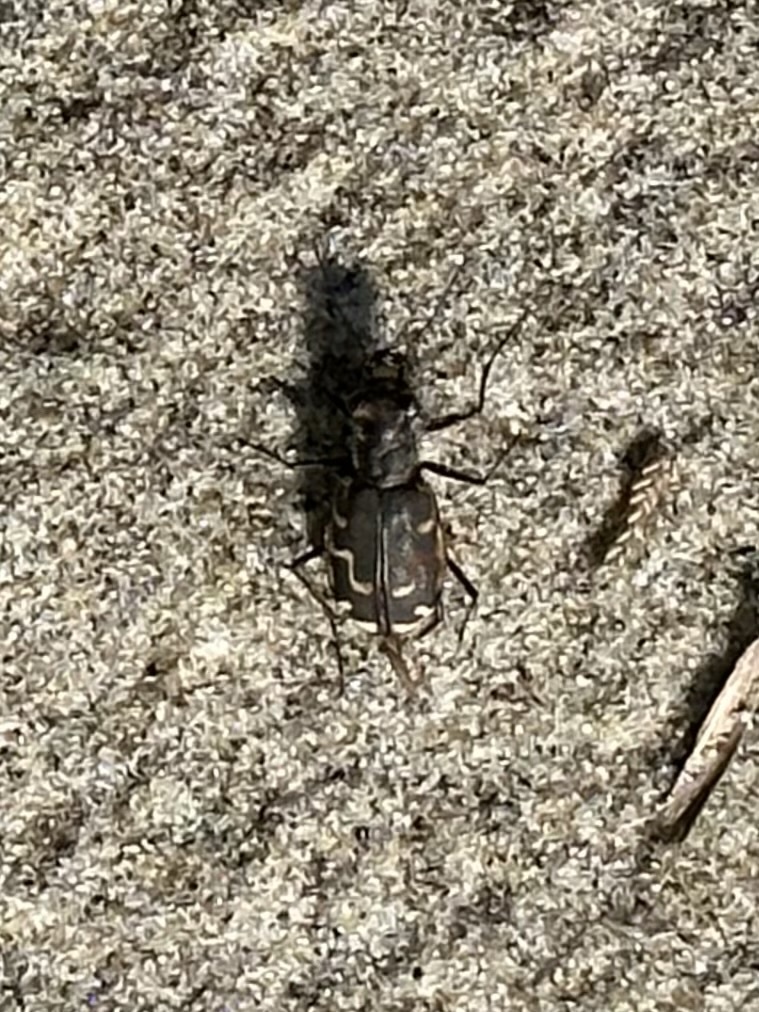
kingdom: Animalia
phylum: Arthropoda
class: Insecta
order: Coleoptera
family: Carabidae
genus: Cicindela
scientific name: Cicindela repanda
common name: Bronzed tiger beetle
